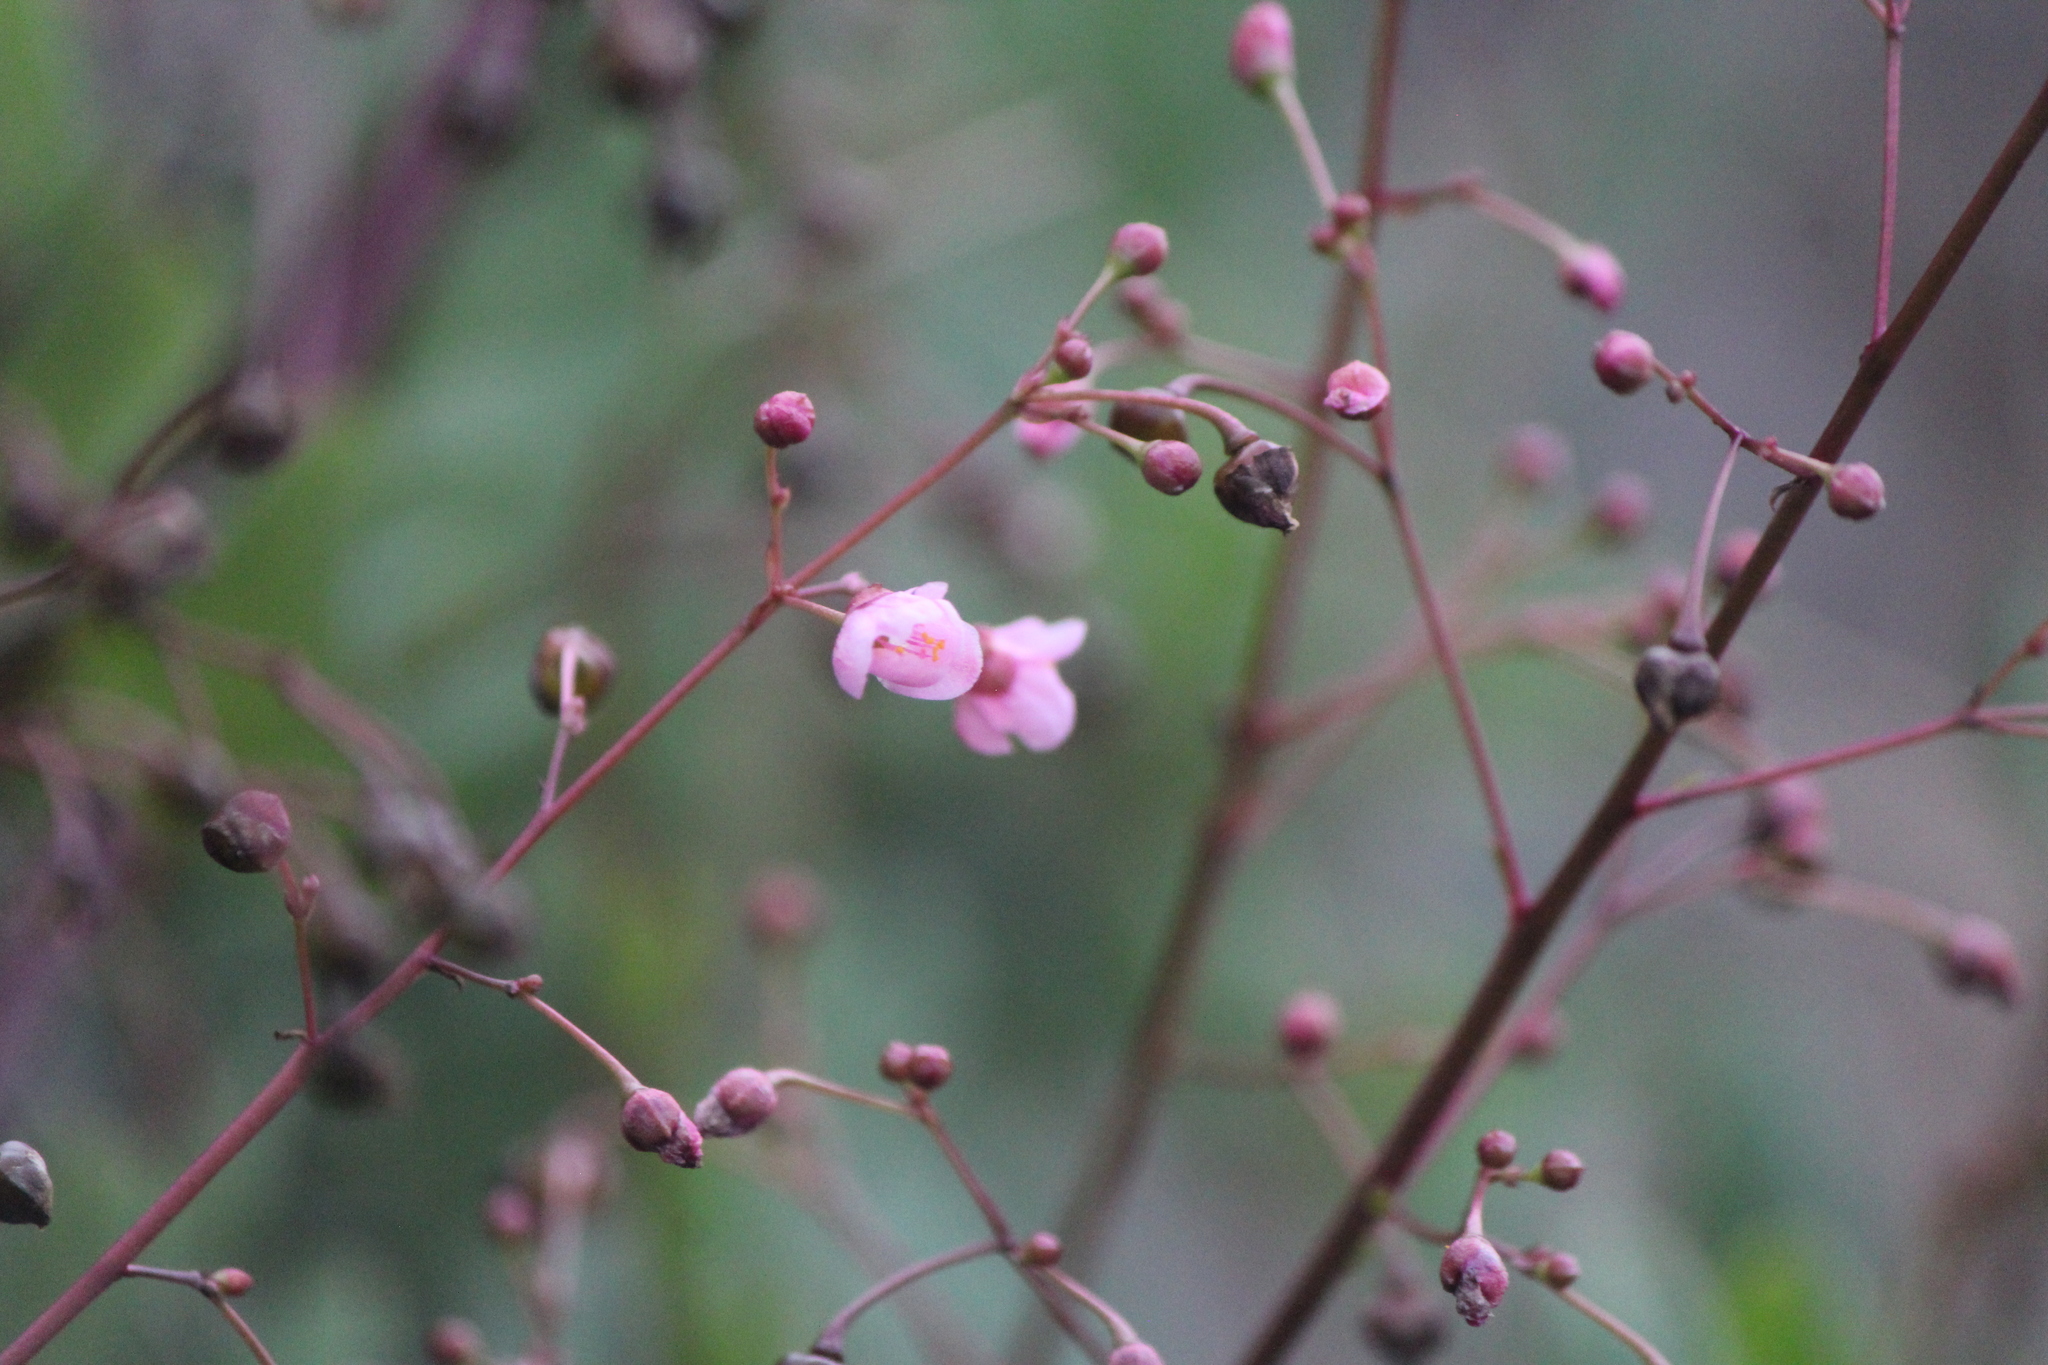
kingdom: Plantae
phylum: Tracheophyta
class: Magnoliopsida
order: Caryophyllales
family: Talinaceae
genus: Talinum
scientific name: Talinum paniculatum
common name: Jewels of opar
